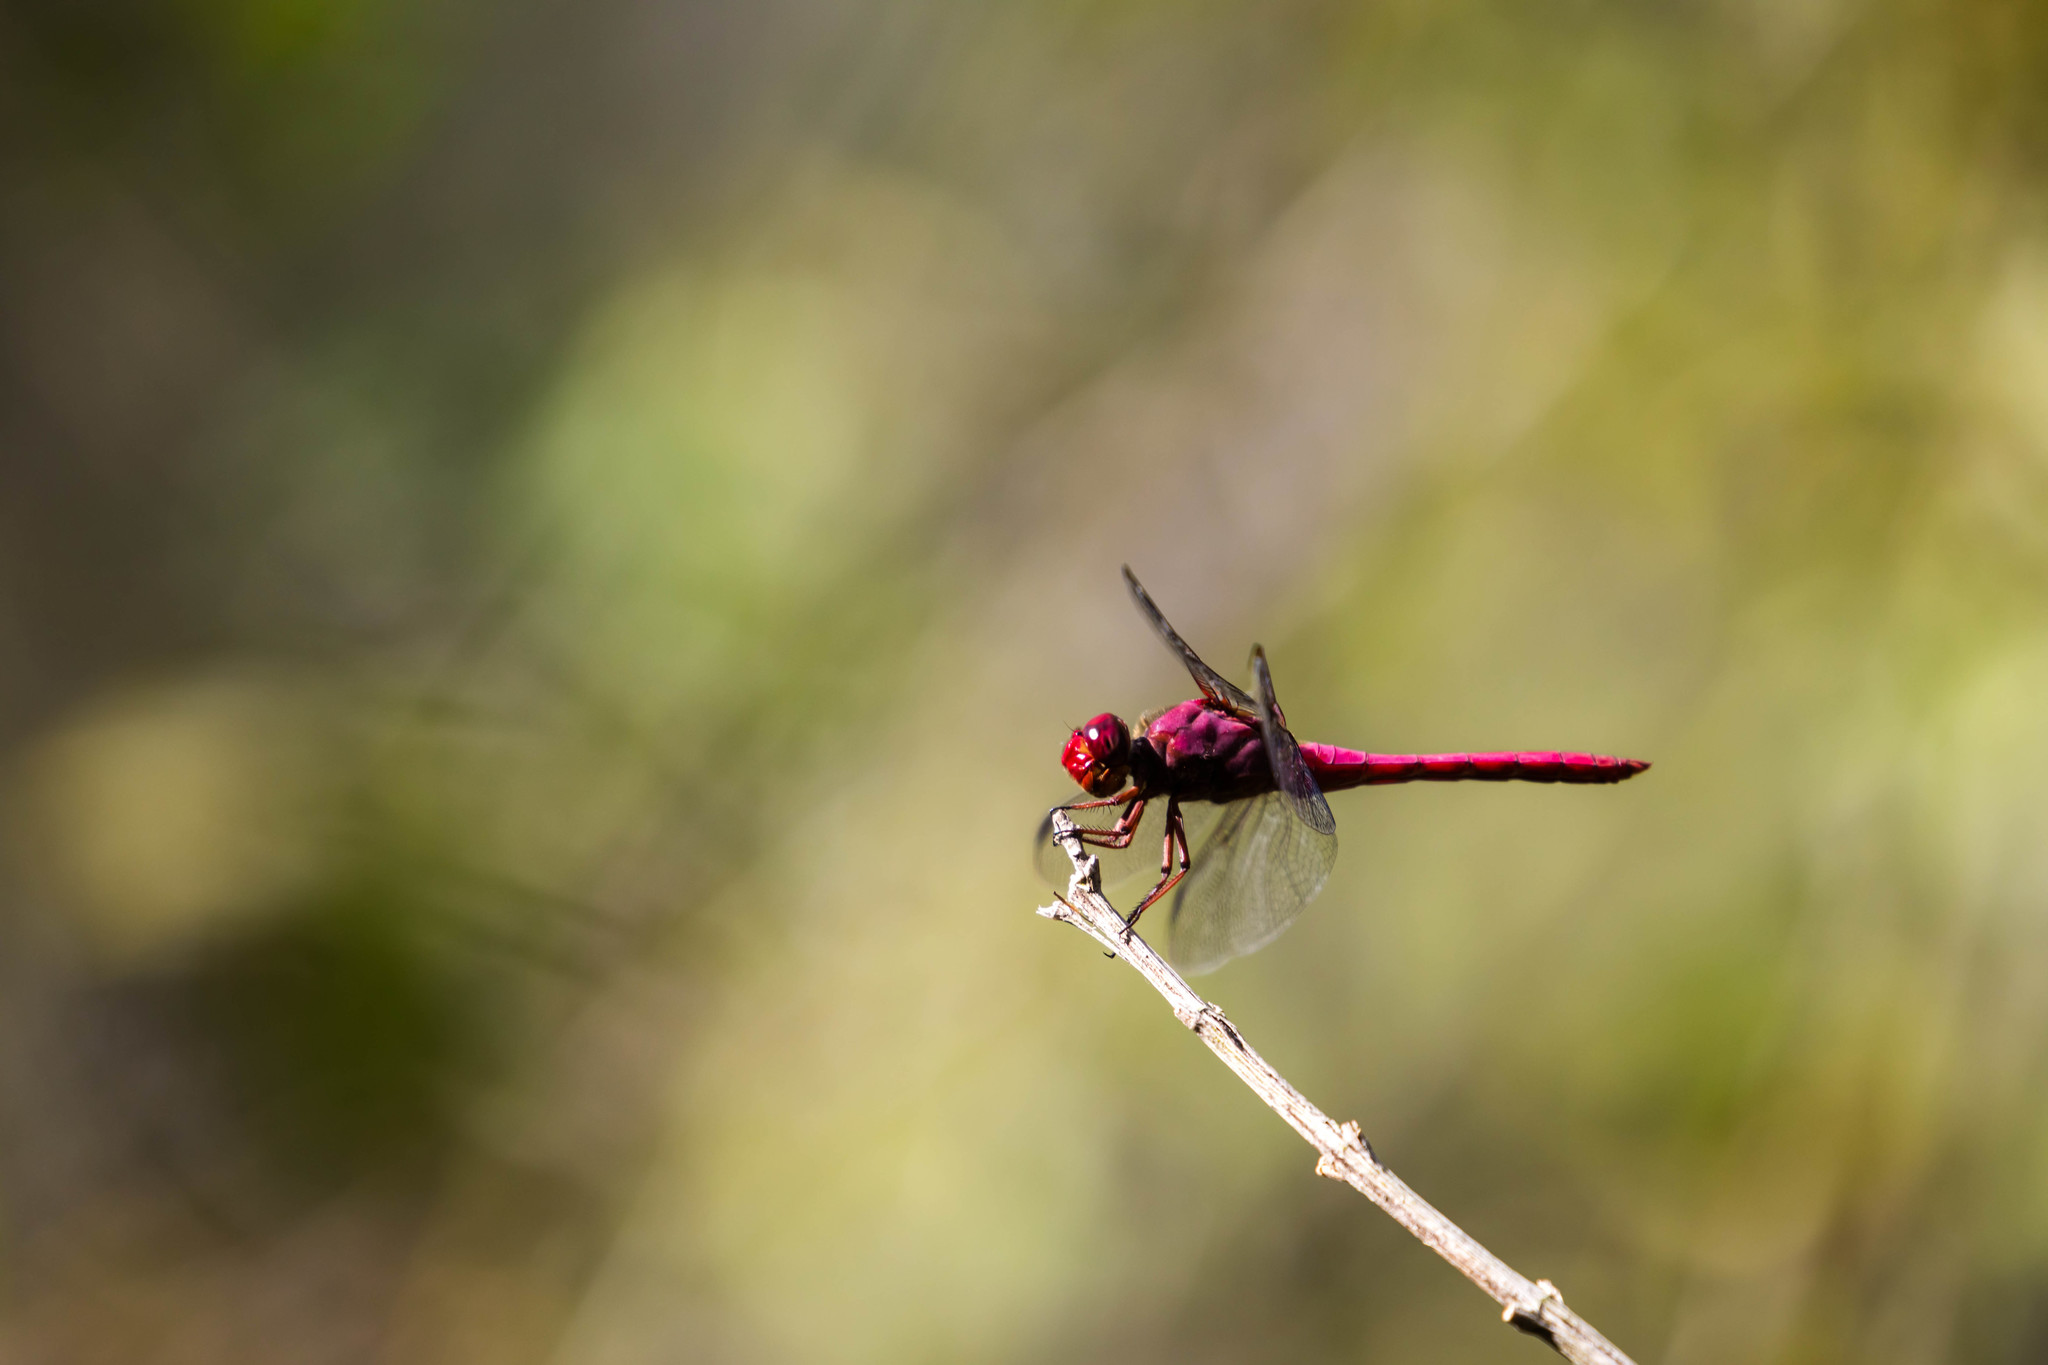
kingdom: Animalia
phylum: Arthropoda
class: Insecta
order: Odonata
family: Libellulidae
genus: Orthemis
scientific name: Orthemis discolor
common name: Carmine skimmer
